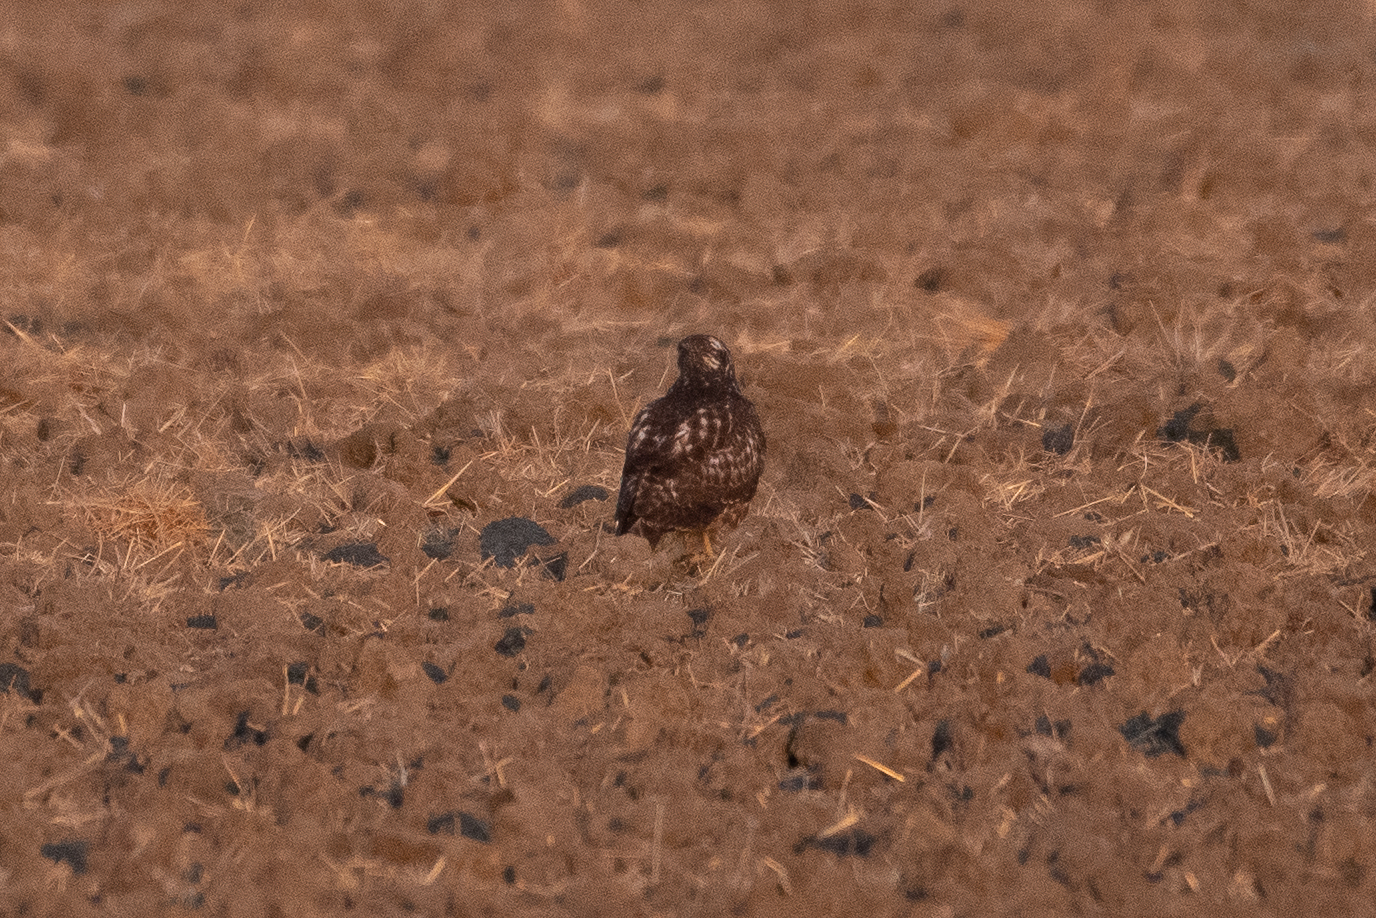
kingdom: Animalia
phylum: Chordata
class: Aves
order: Accipitriformes
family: Accipitridae
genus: Buteo
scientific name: Buteo jamaicensis
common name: Red-tailed hawk
